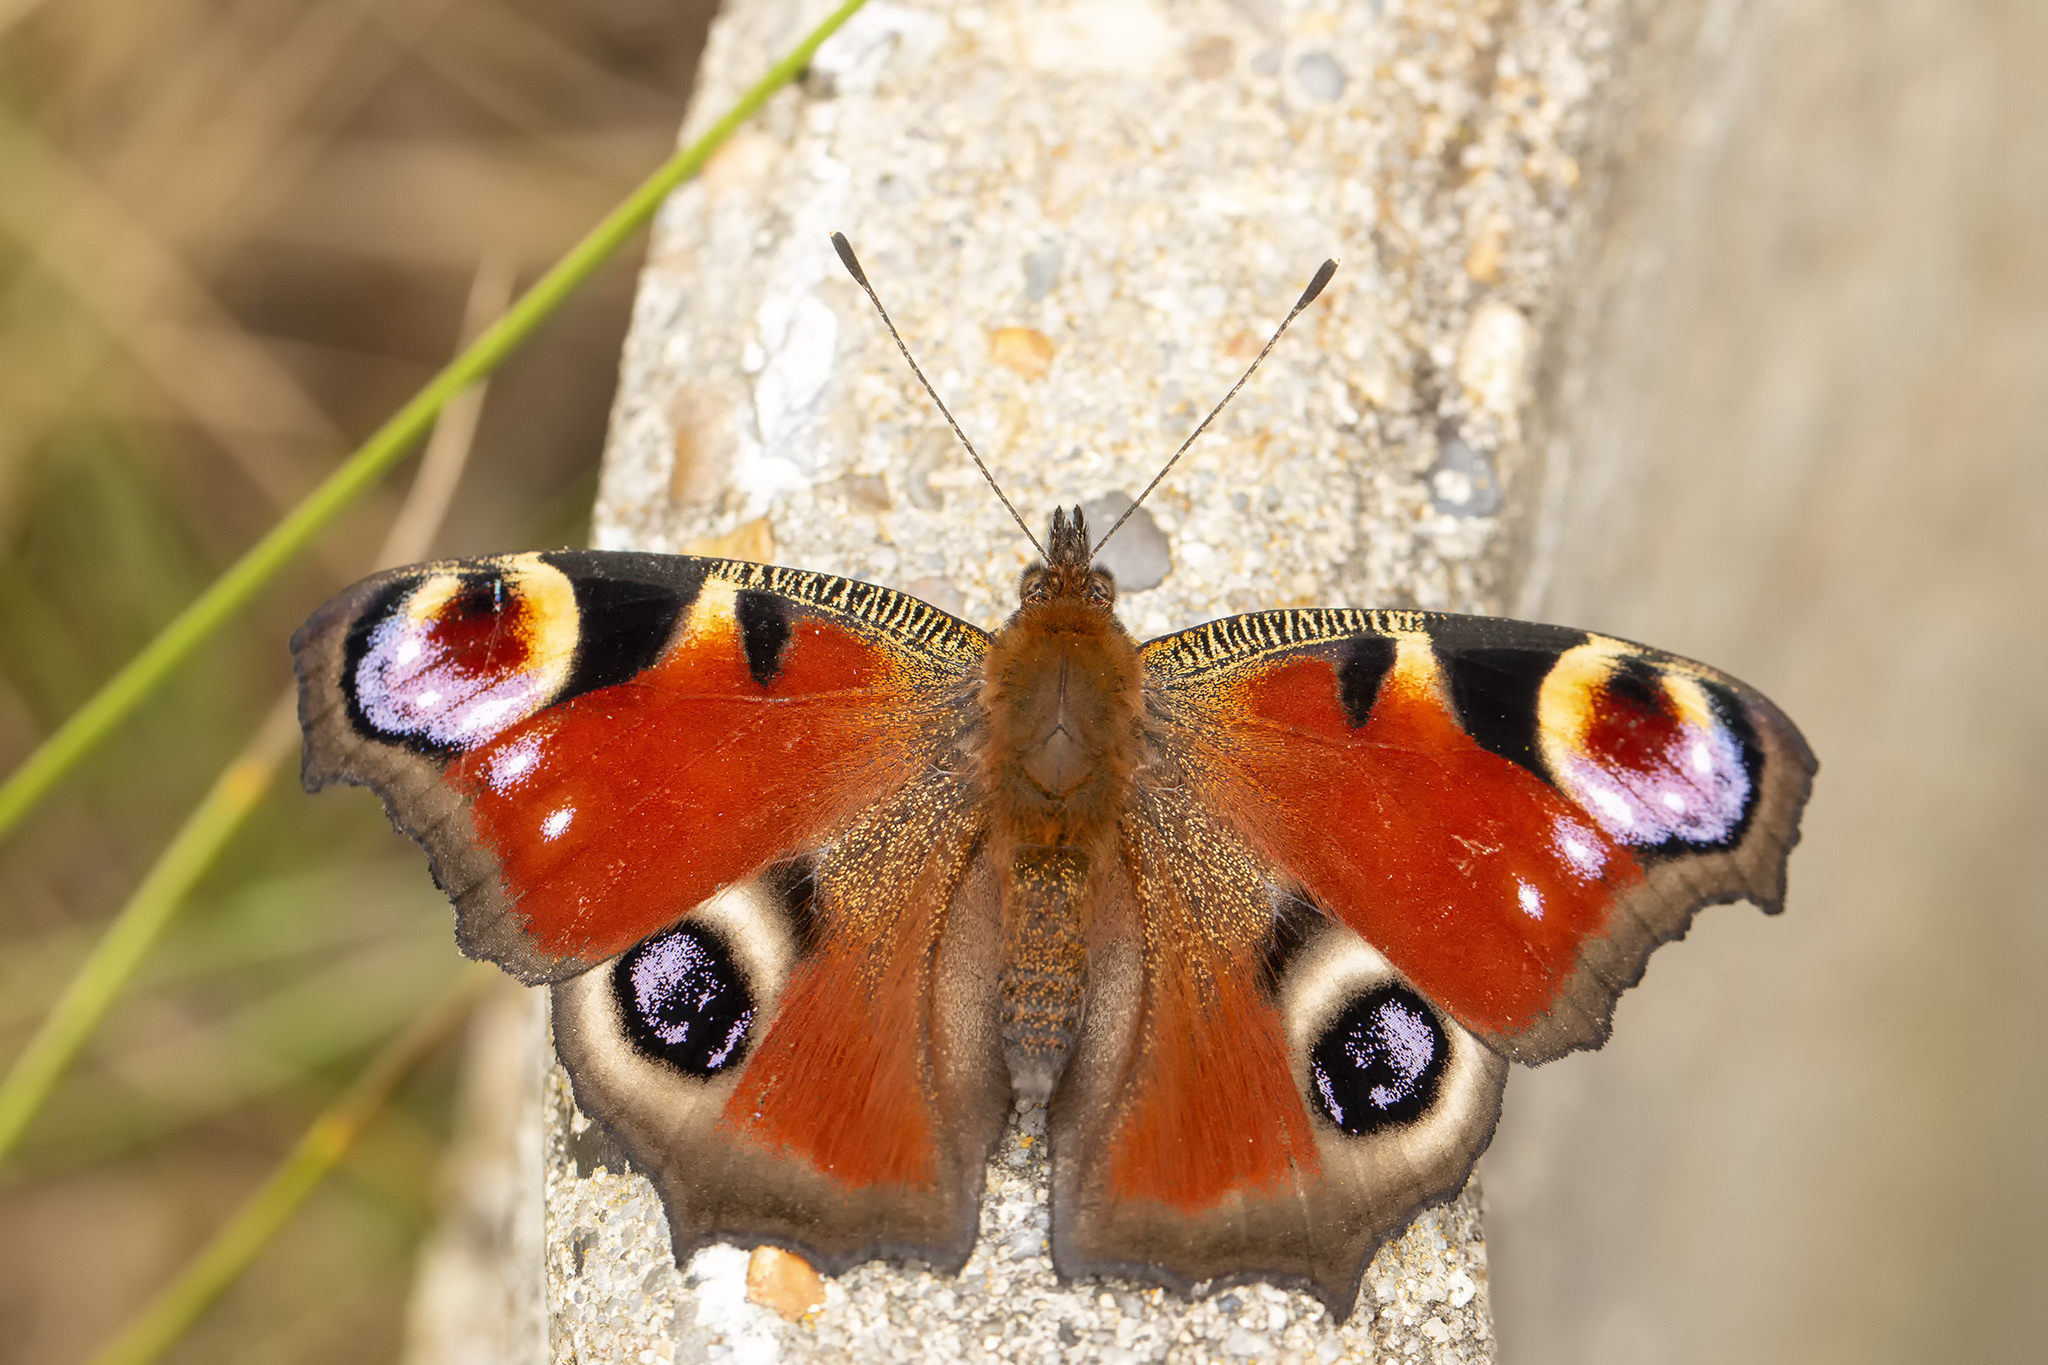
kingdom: Animalia
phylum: Arthropoda
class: Insecta
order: Lepidoptera
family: Nymphalidae
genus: Aglais
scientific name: Aglais io
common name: Peacock
